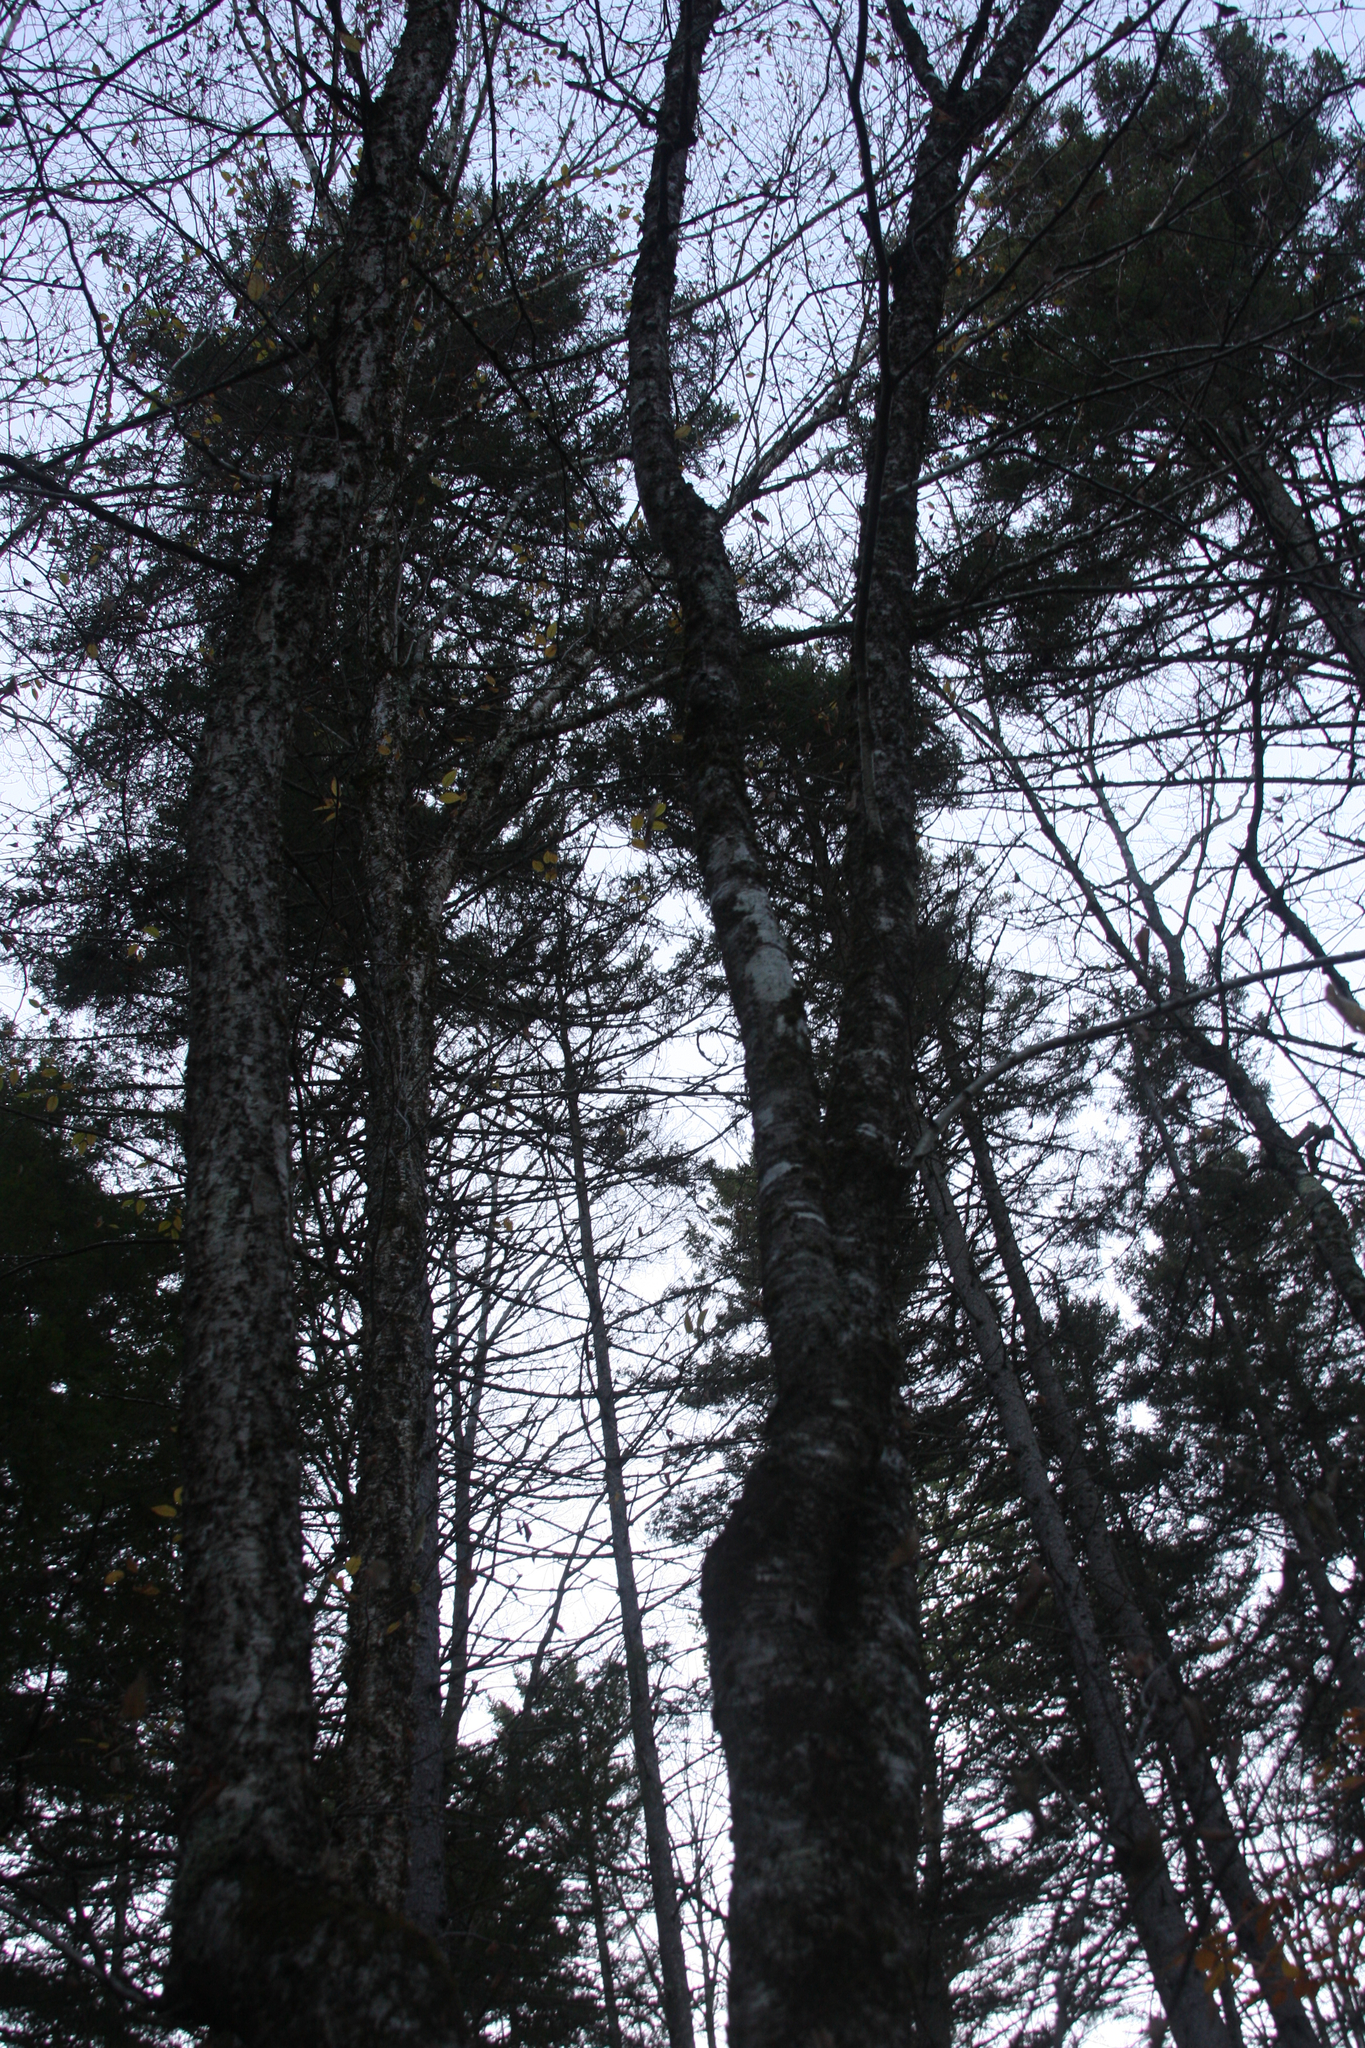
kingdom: Plantae
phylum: Tracheophyta
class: Magnoliopsida
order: Fagales
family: Betulaceae
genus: Betula
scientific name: Betula alleghaniensis
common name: Yellow birch
